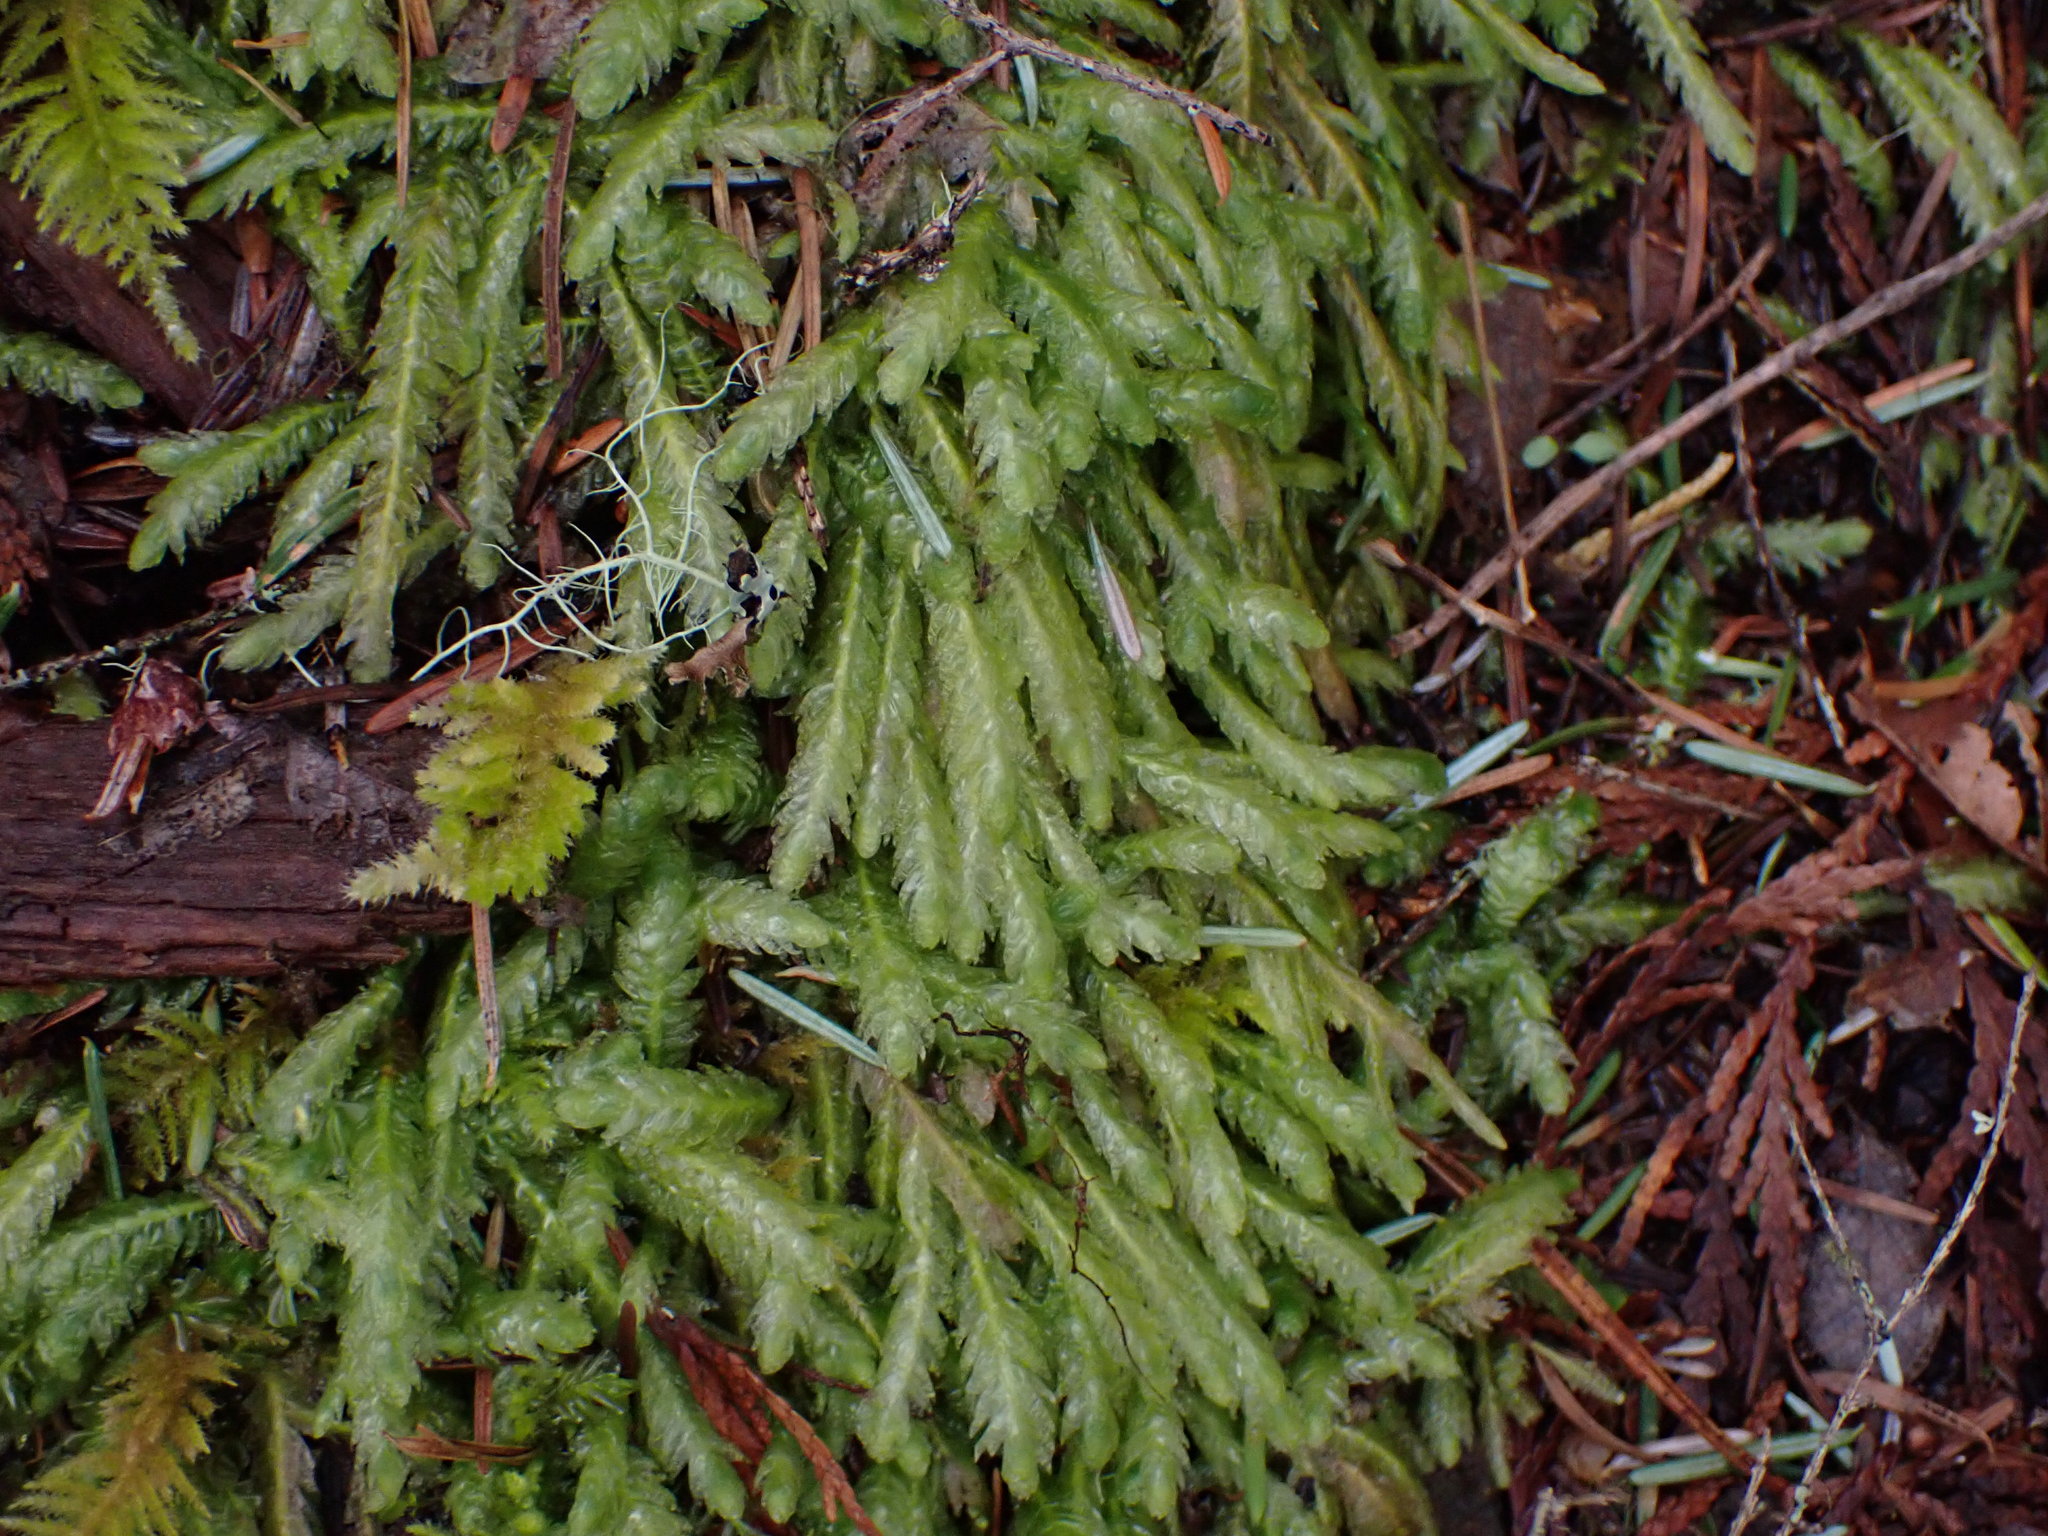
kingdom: Plantae
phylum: Bryophyta
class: Bryopsida
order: Hypnales
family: Plagiotheciaceae
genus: Plagiothecium
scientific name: Plagiothecium undulatum
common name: Waved silk-moss
